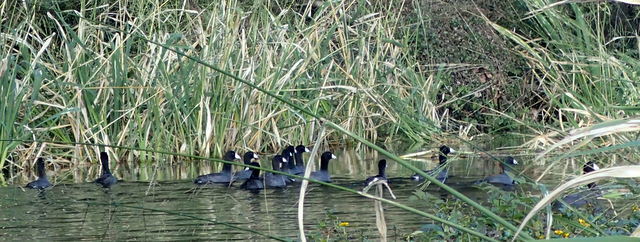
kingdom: Animalia
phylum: Chordata
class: Aves
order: Gruiformes
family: Rallidae
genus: Fulica
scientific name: Fulica americana
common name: American coot
